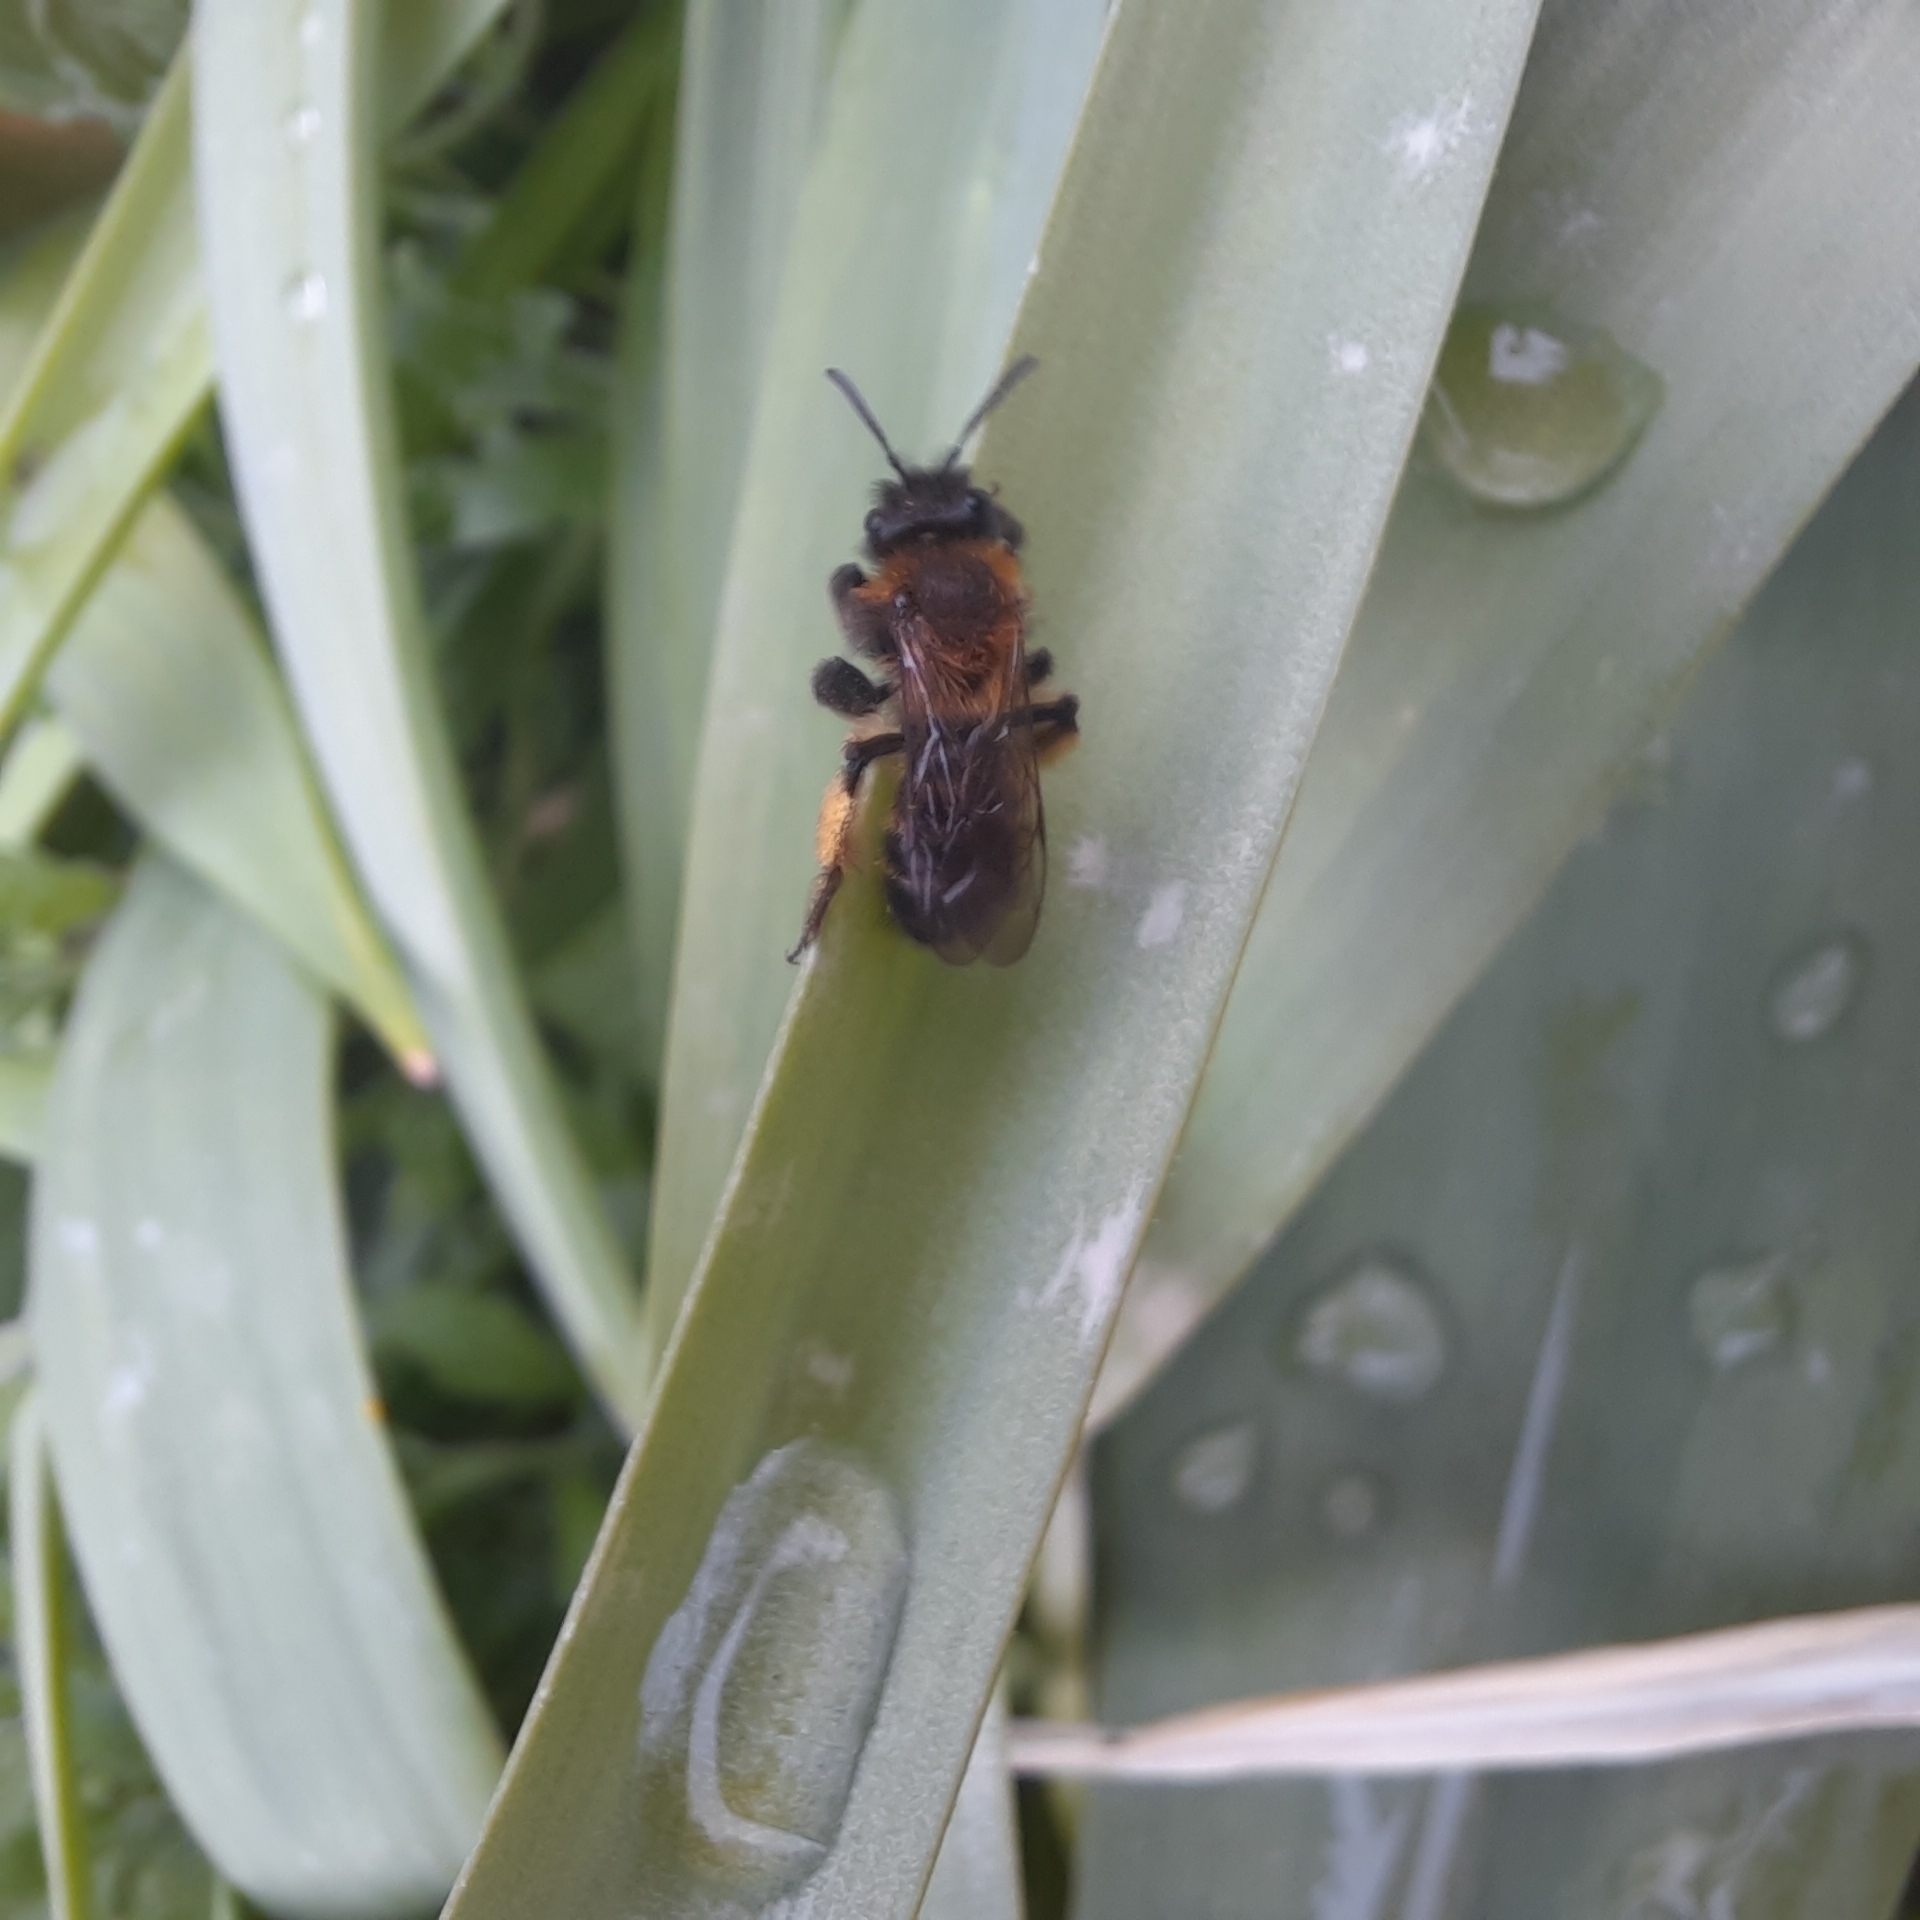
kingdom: Animalia
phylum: Arthropoda
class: Insecta
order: Hymenoptera
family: Andrenidae
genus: Andrena
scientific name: Andrena bicolor
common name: Gwynne's mining bee
